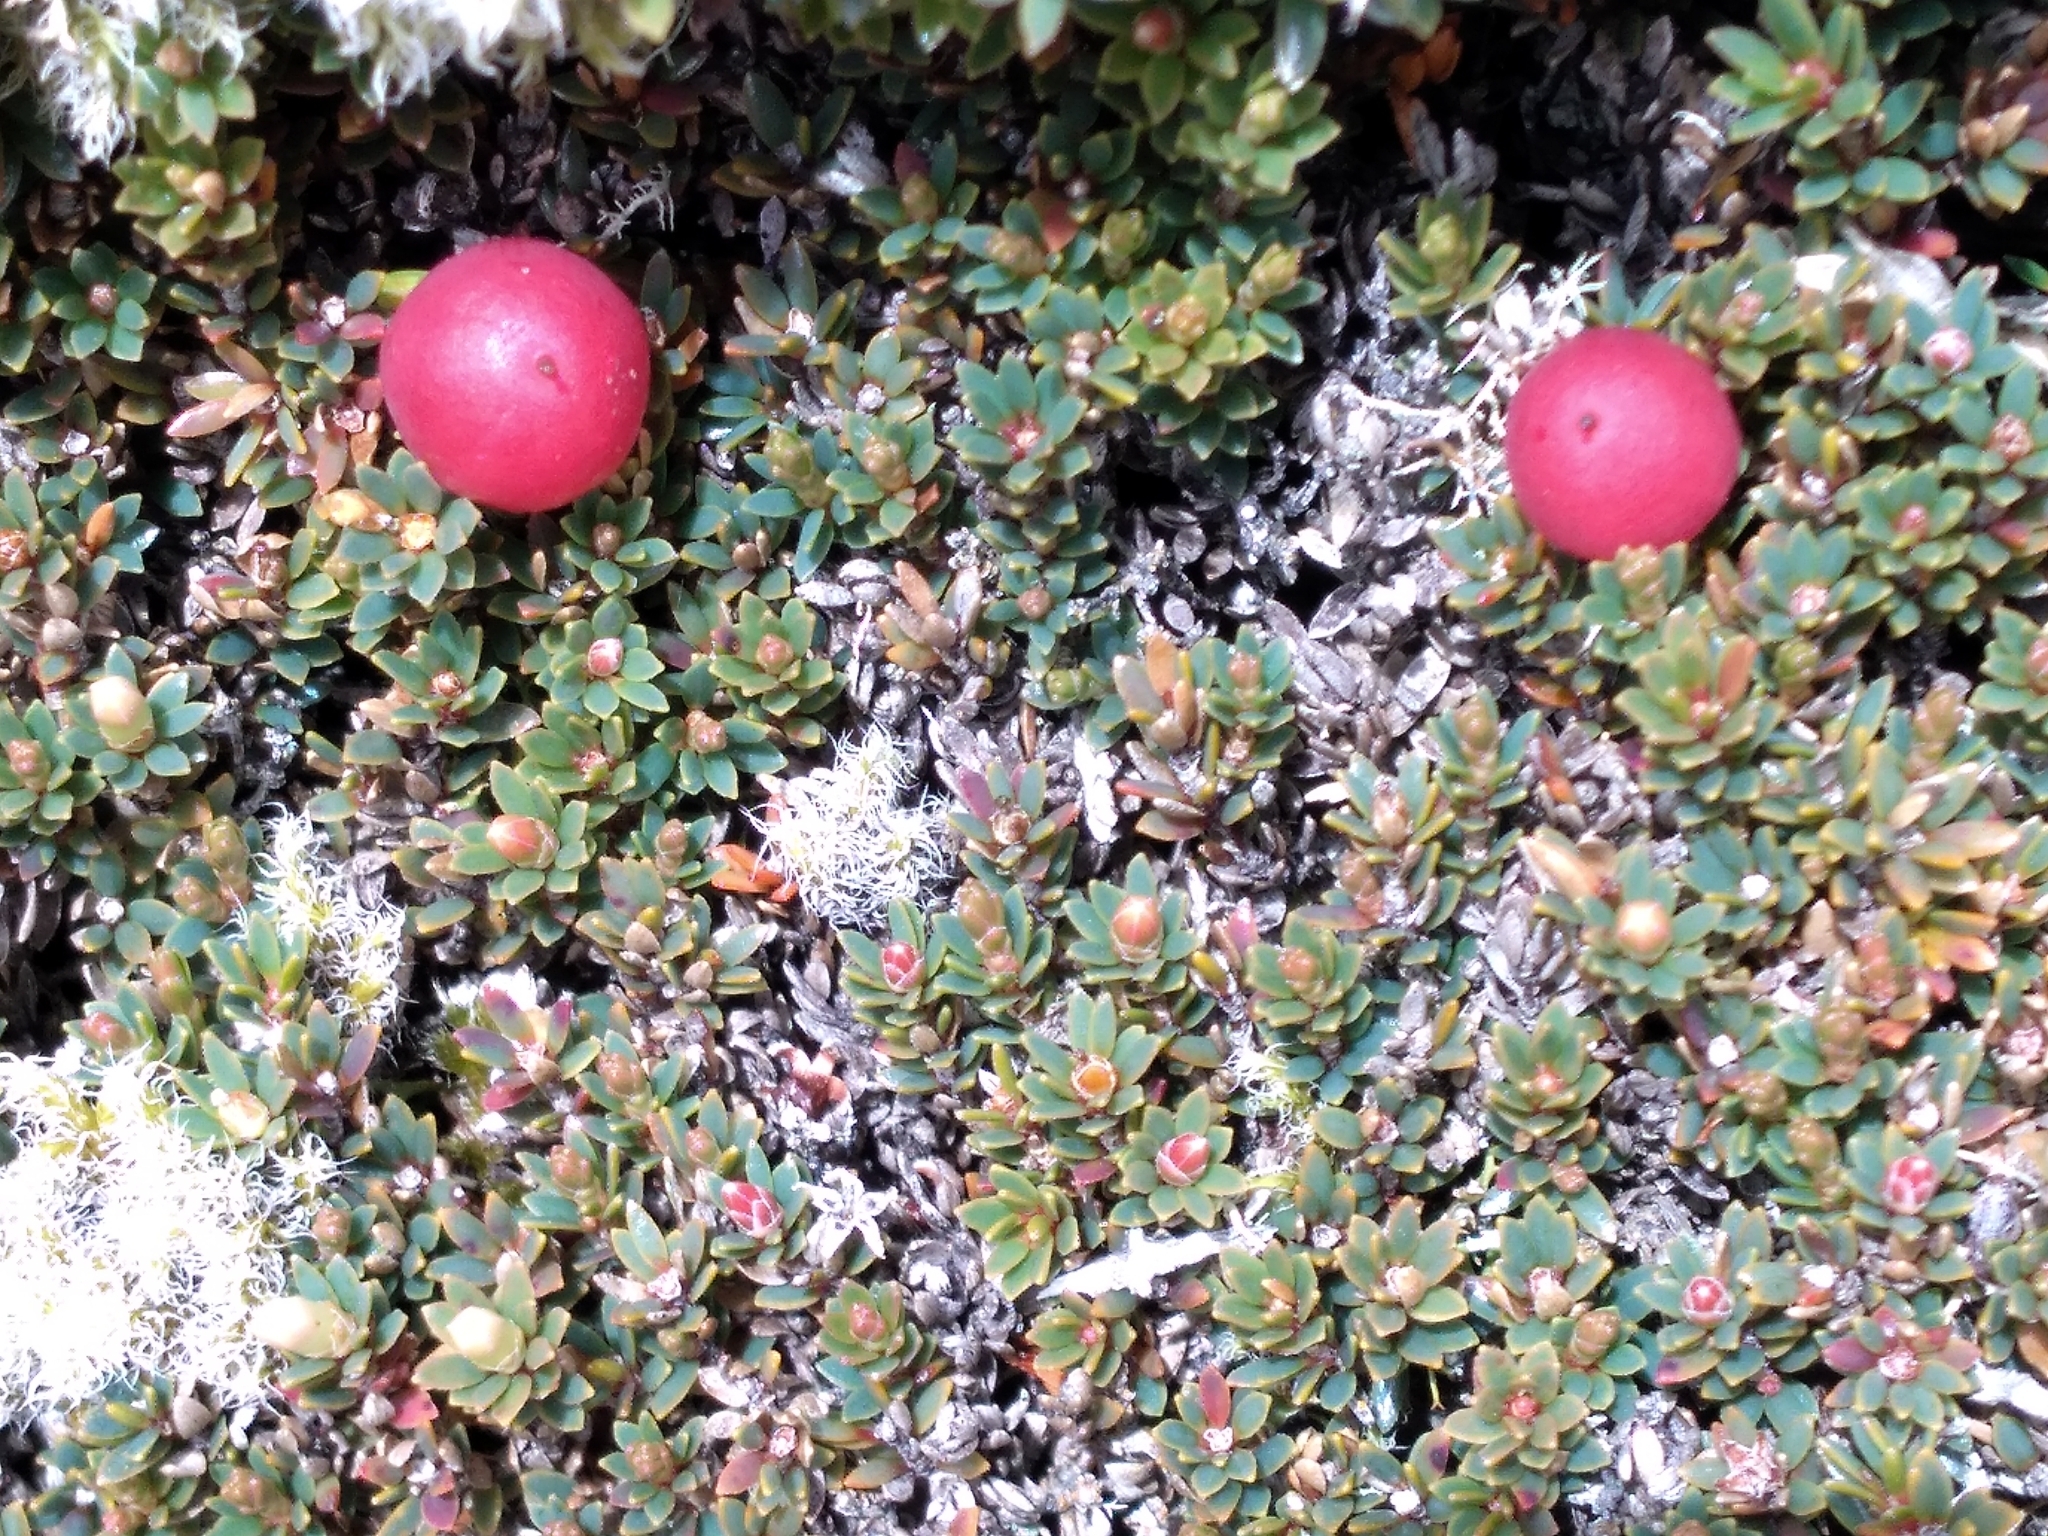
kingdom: Plantae
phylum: Tracheophyta
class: Magnoliopsida
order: Ericales
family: Ericaceae
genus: Pentachondra
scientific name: Pentachondra pumila
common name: Carpet-heath
